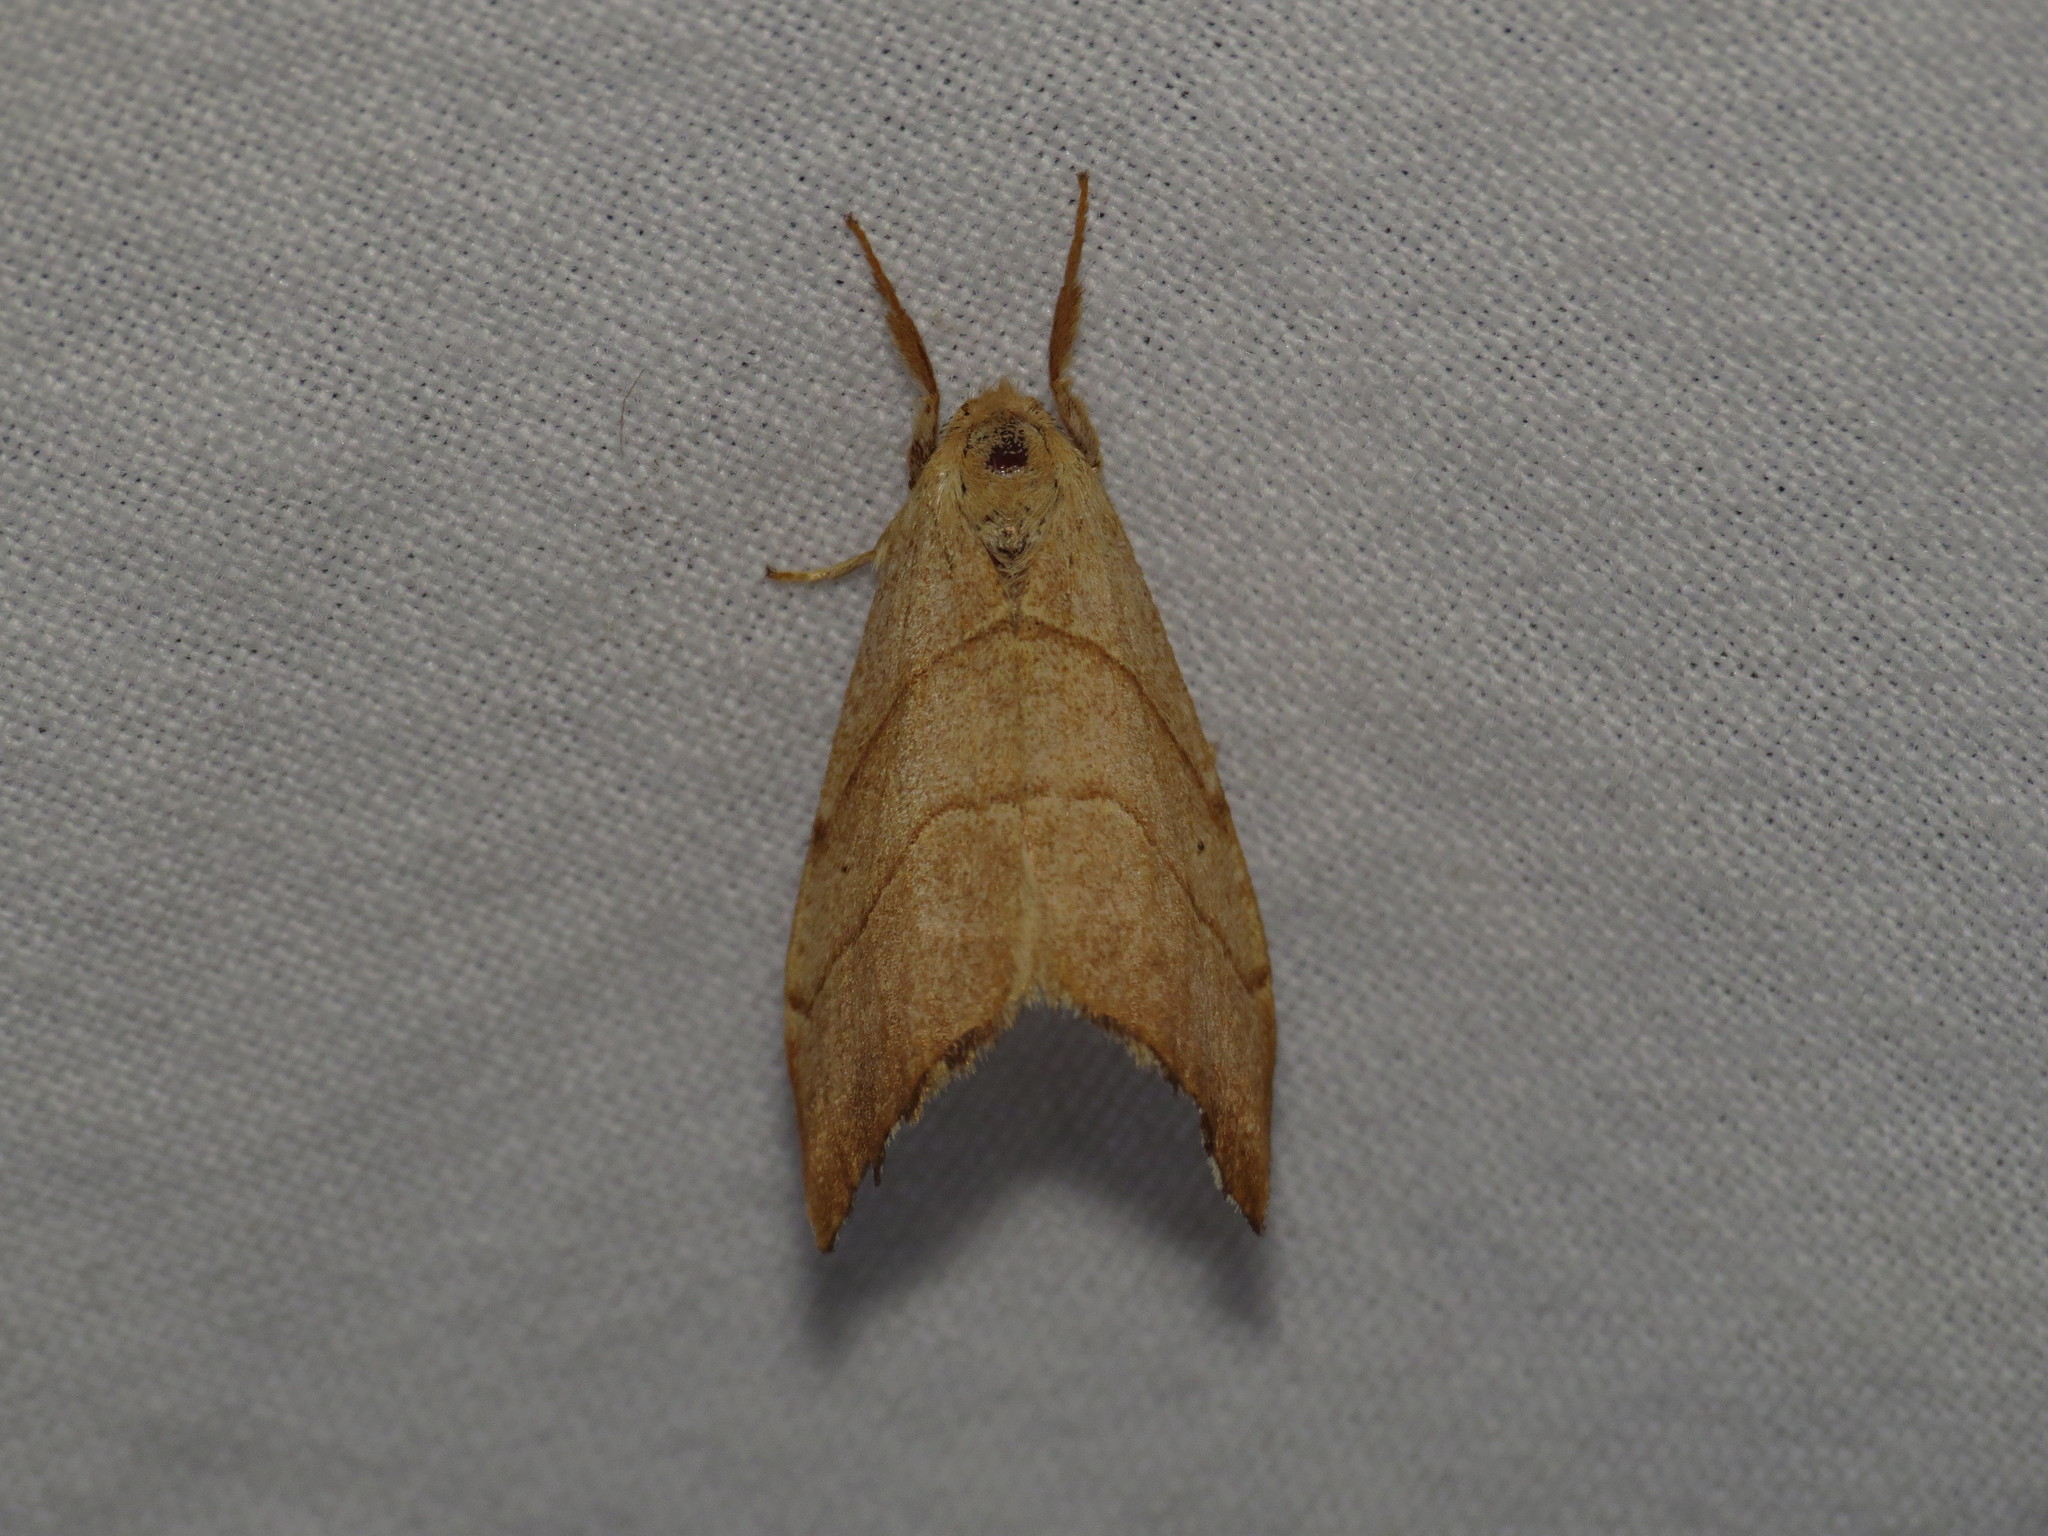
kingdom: Animalia
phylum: Arthropoda
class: Insecta
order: Lepidoptera
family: Drepanidae
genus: Falcaria
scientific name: Falcaria lacertinaria
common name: Scalloped hook-tip
